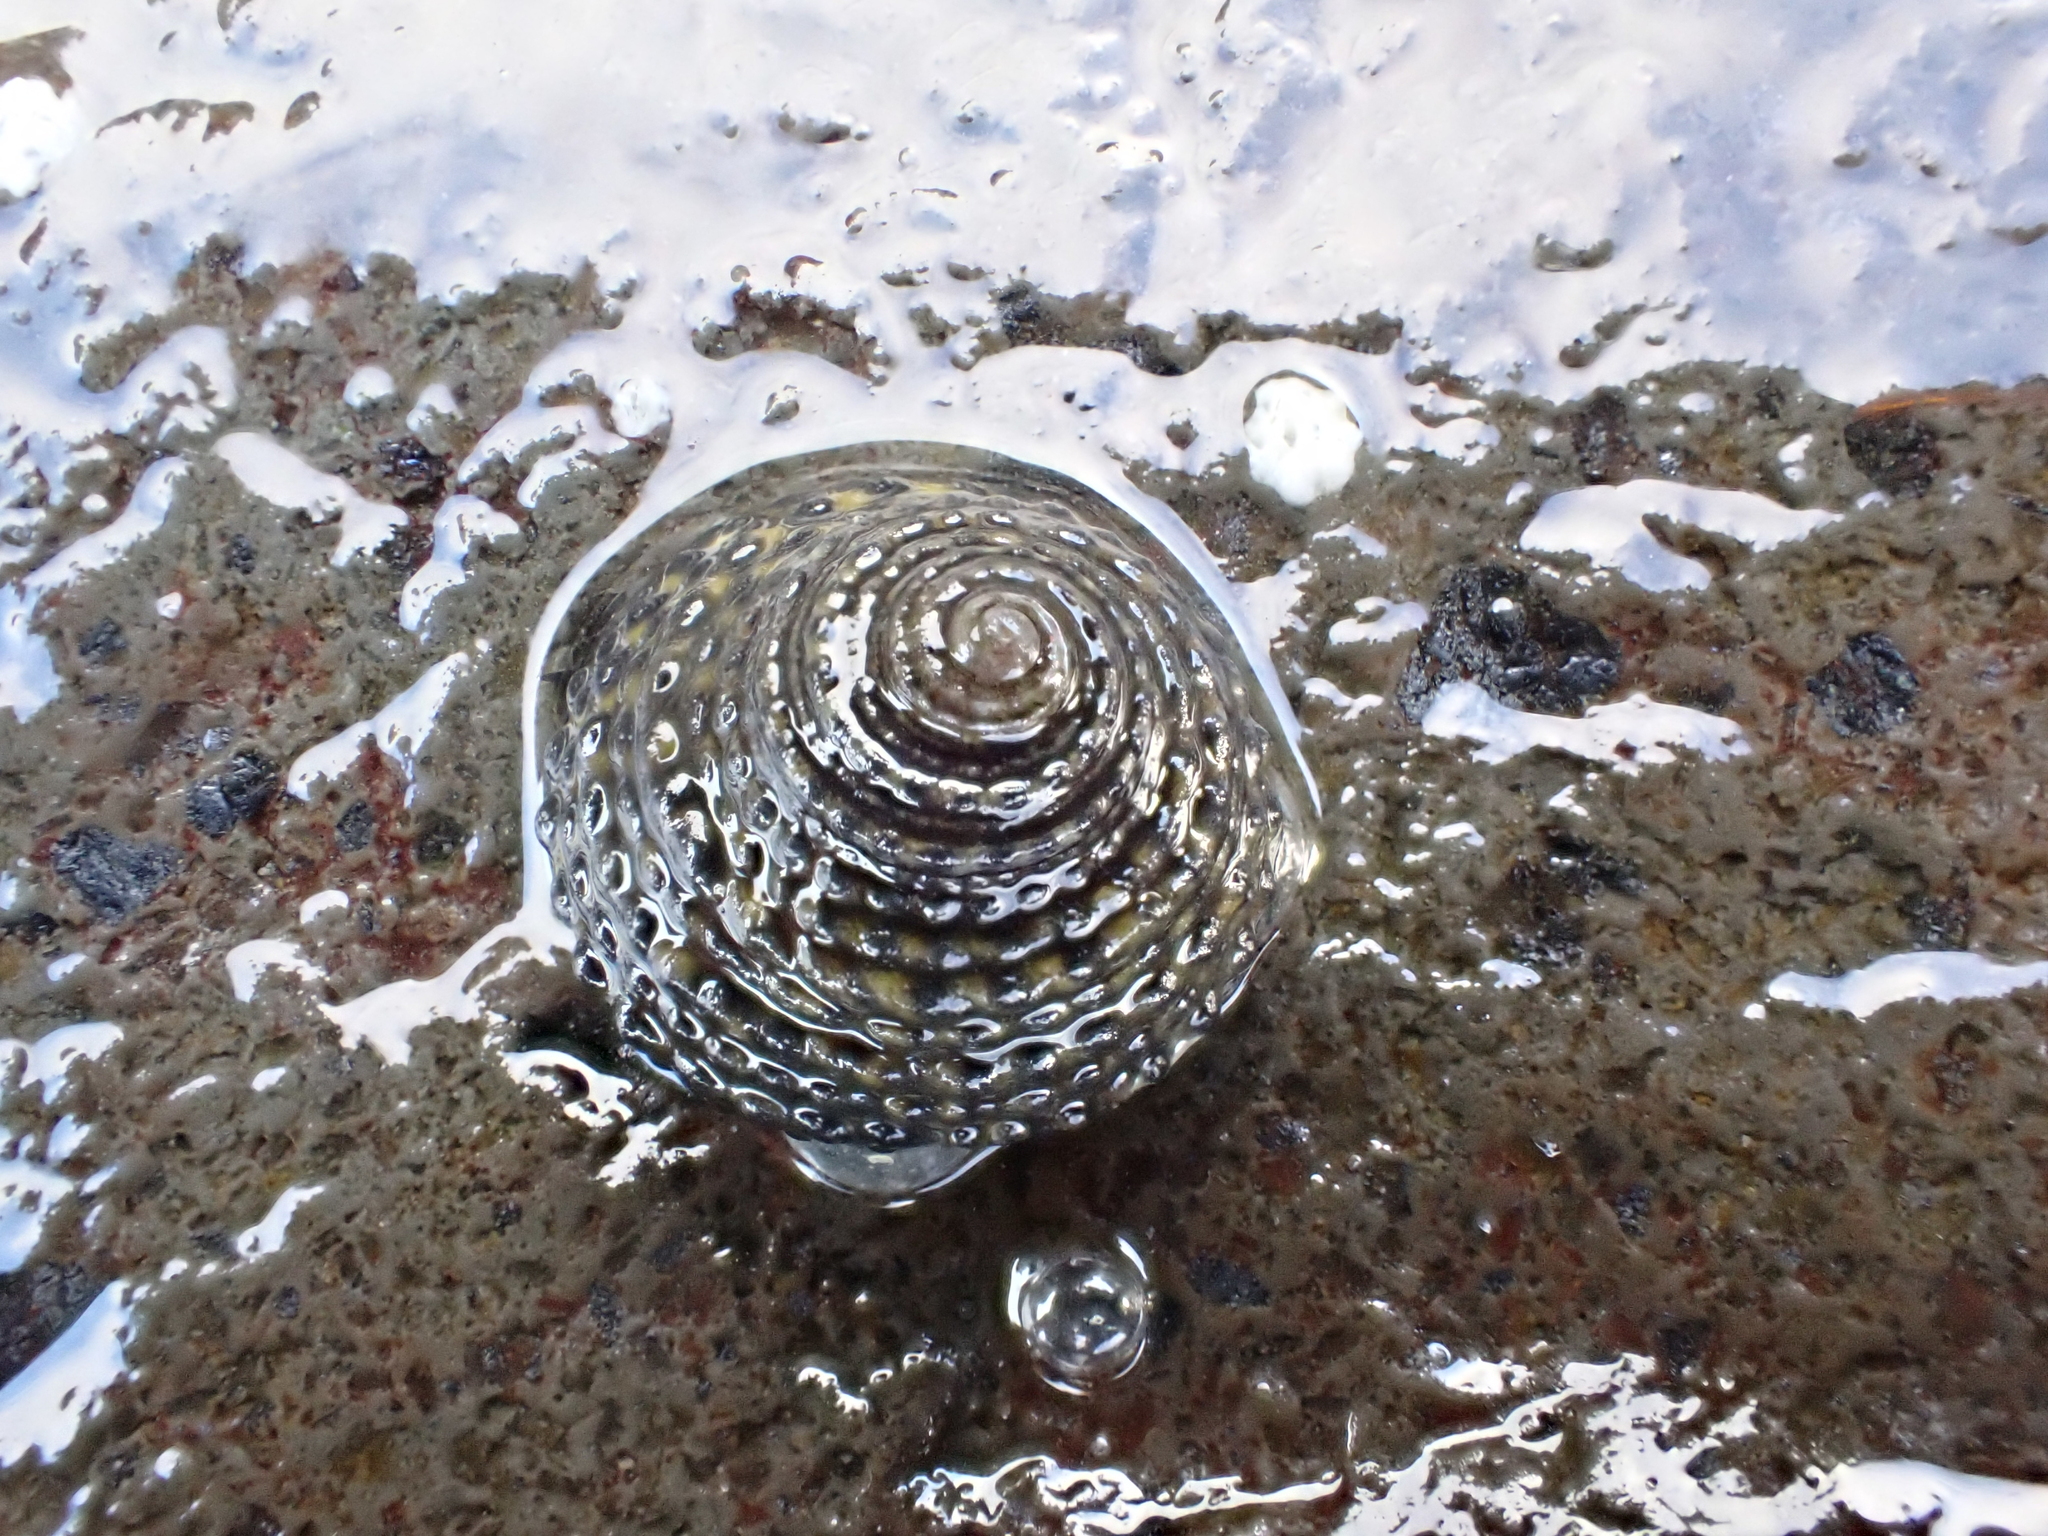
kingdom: Animalia
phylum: Mollusca
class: Gastropoda
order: Trochida
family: Trochidae
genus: Diloma
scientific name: Diloma bicanaliculatum
